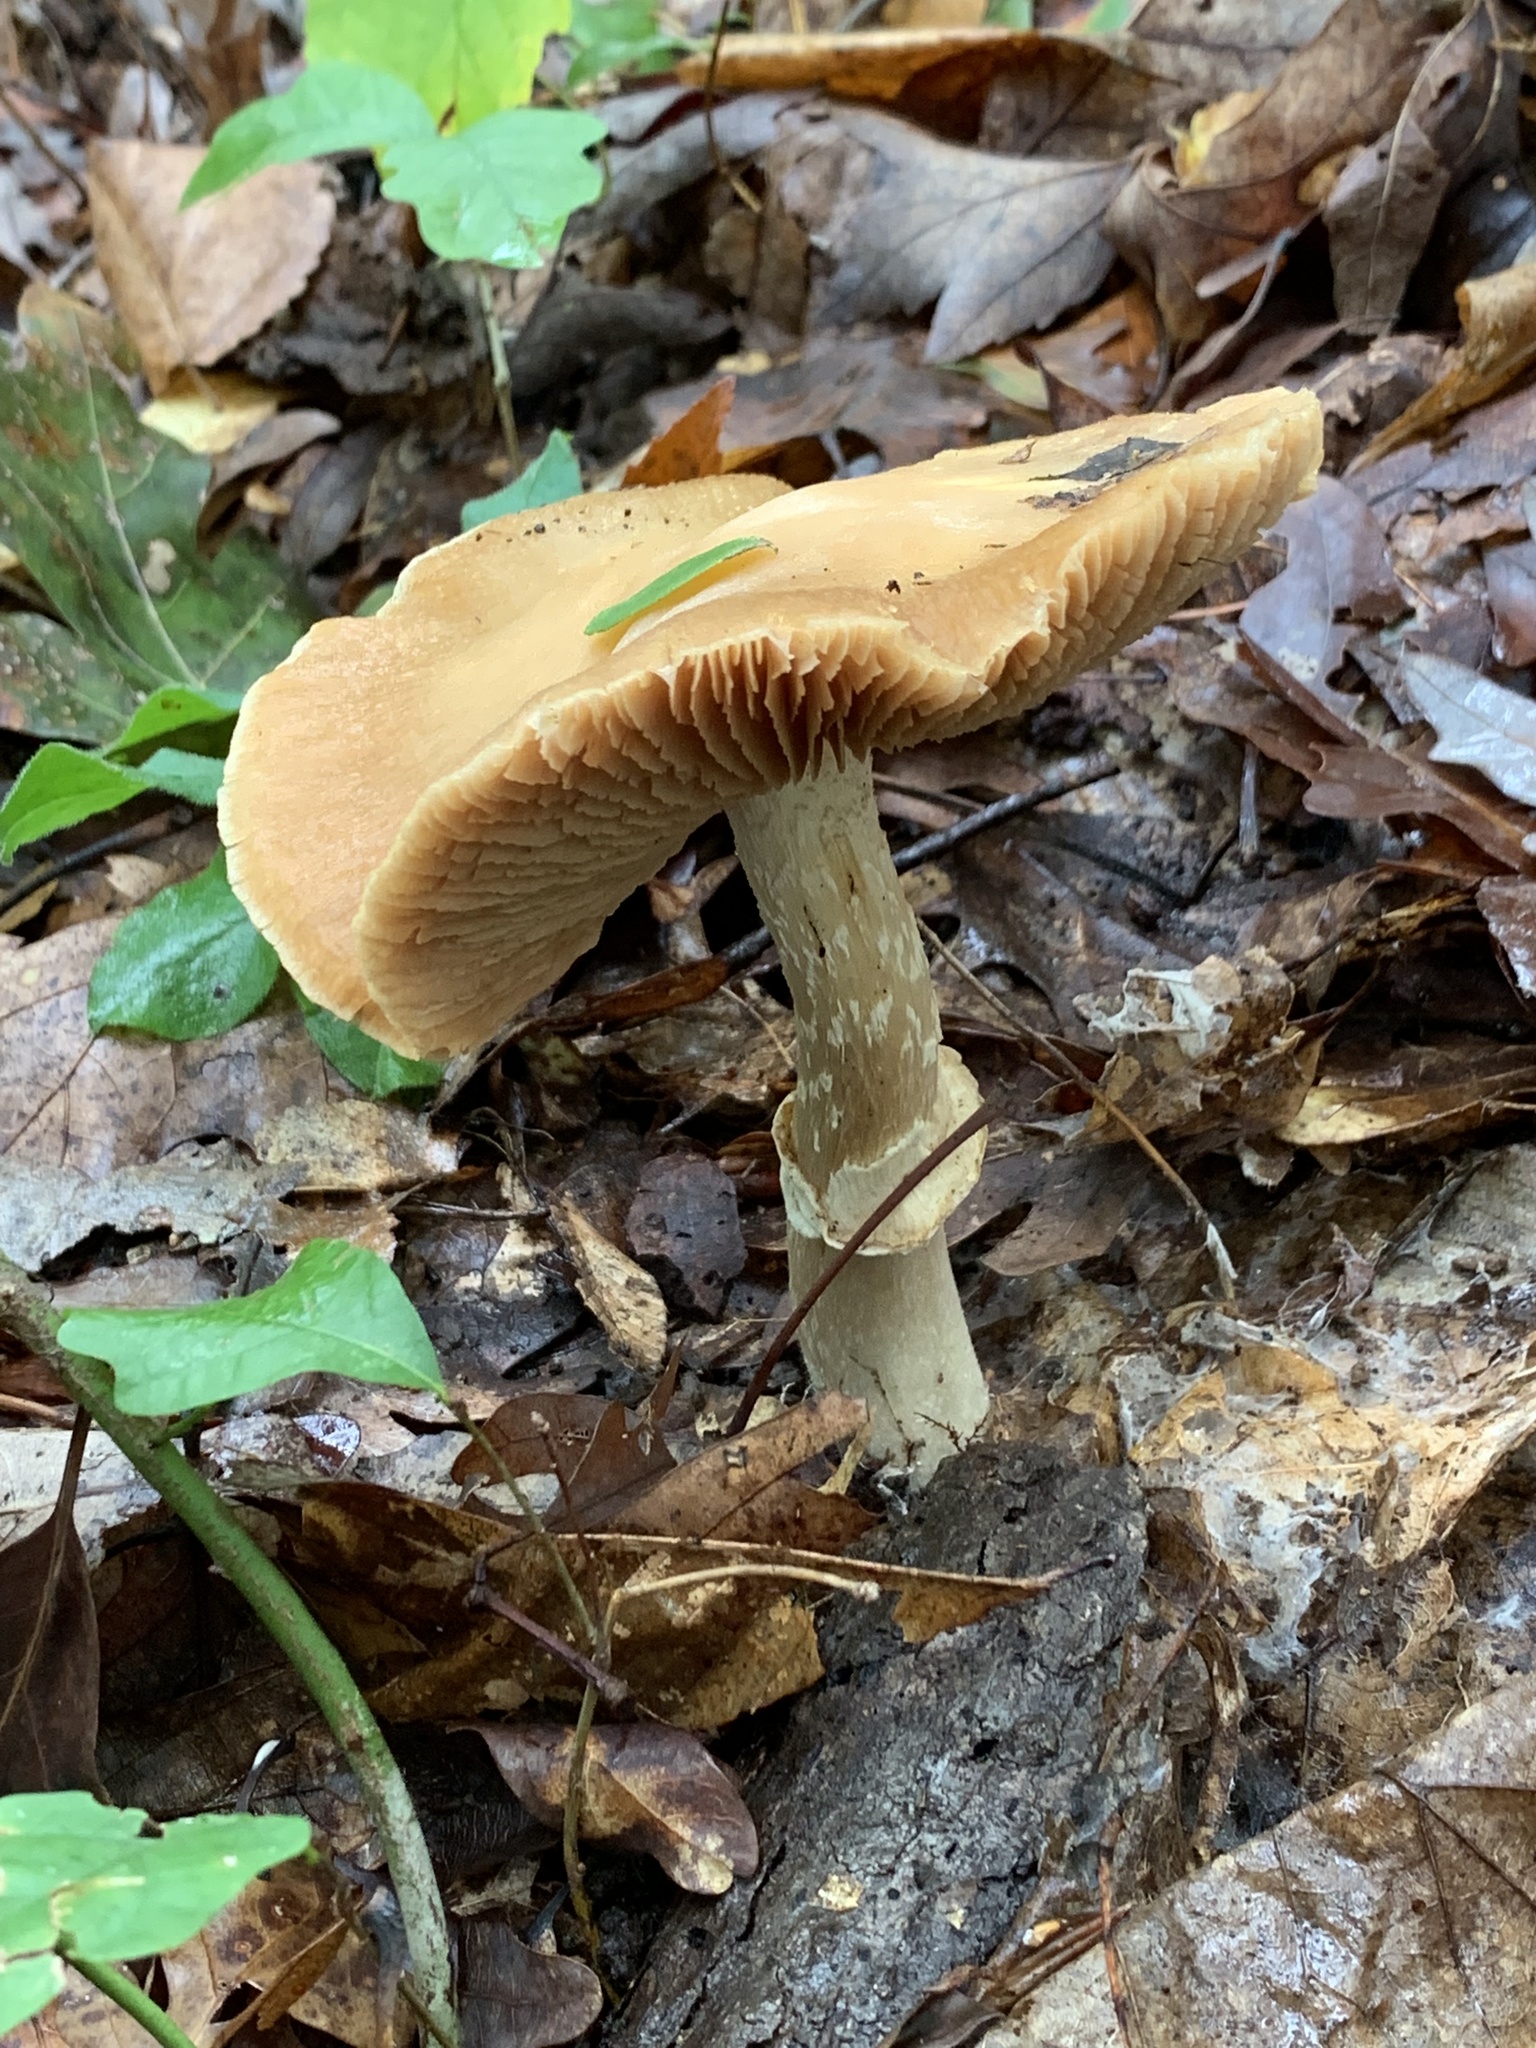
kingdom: Fungi
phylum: Basidiomycota
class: Agaricomycetes
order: Agaricales
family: Cortinariaceae
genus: Cortinarius
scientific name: Cortinarius caperatus
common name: The gypsy
